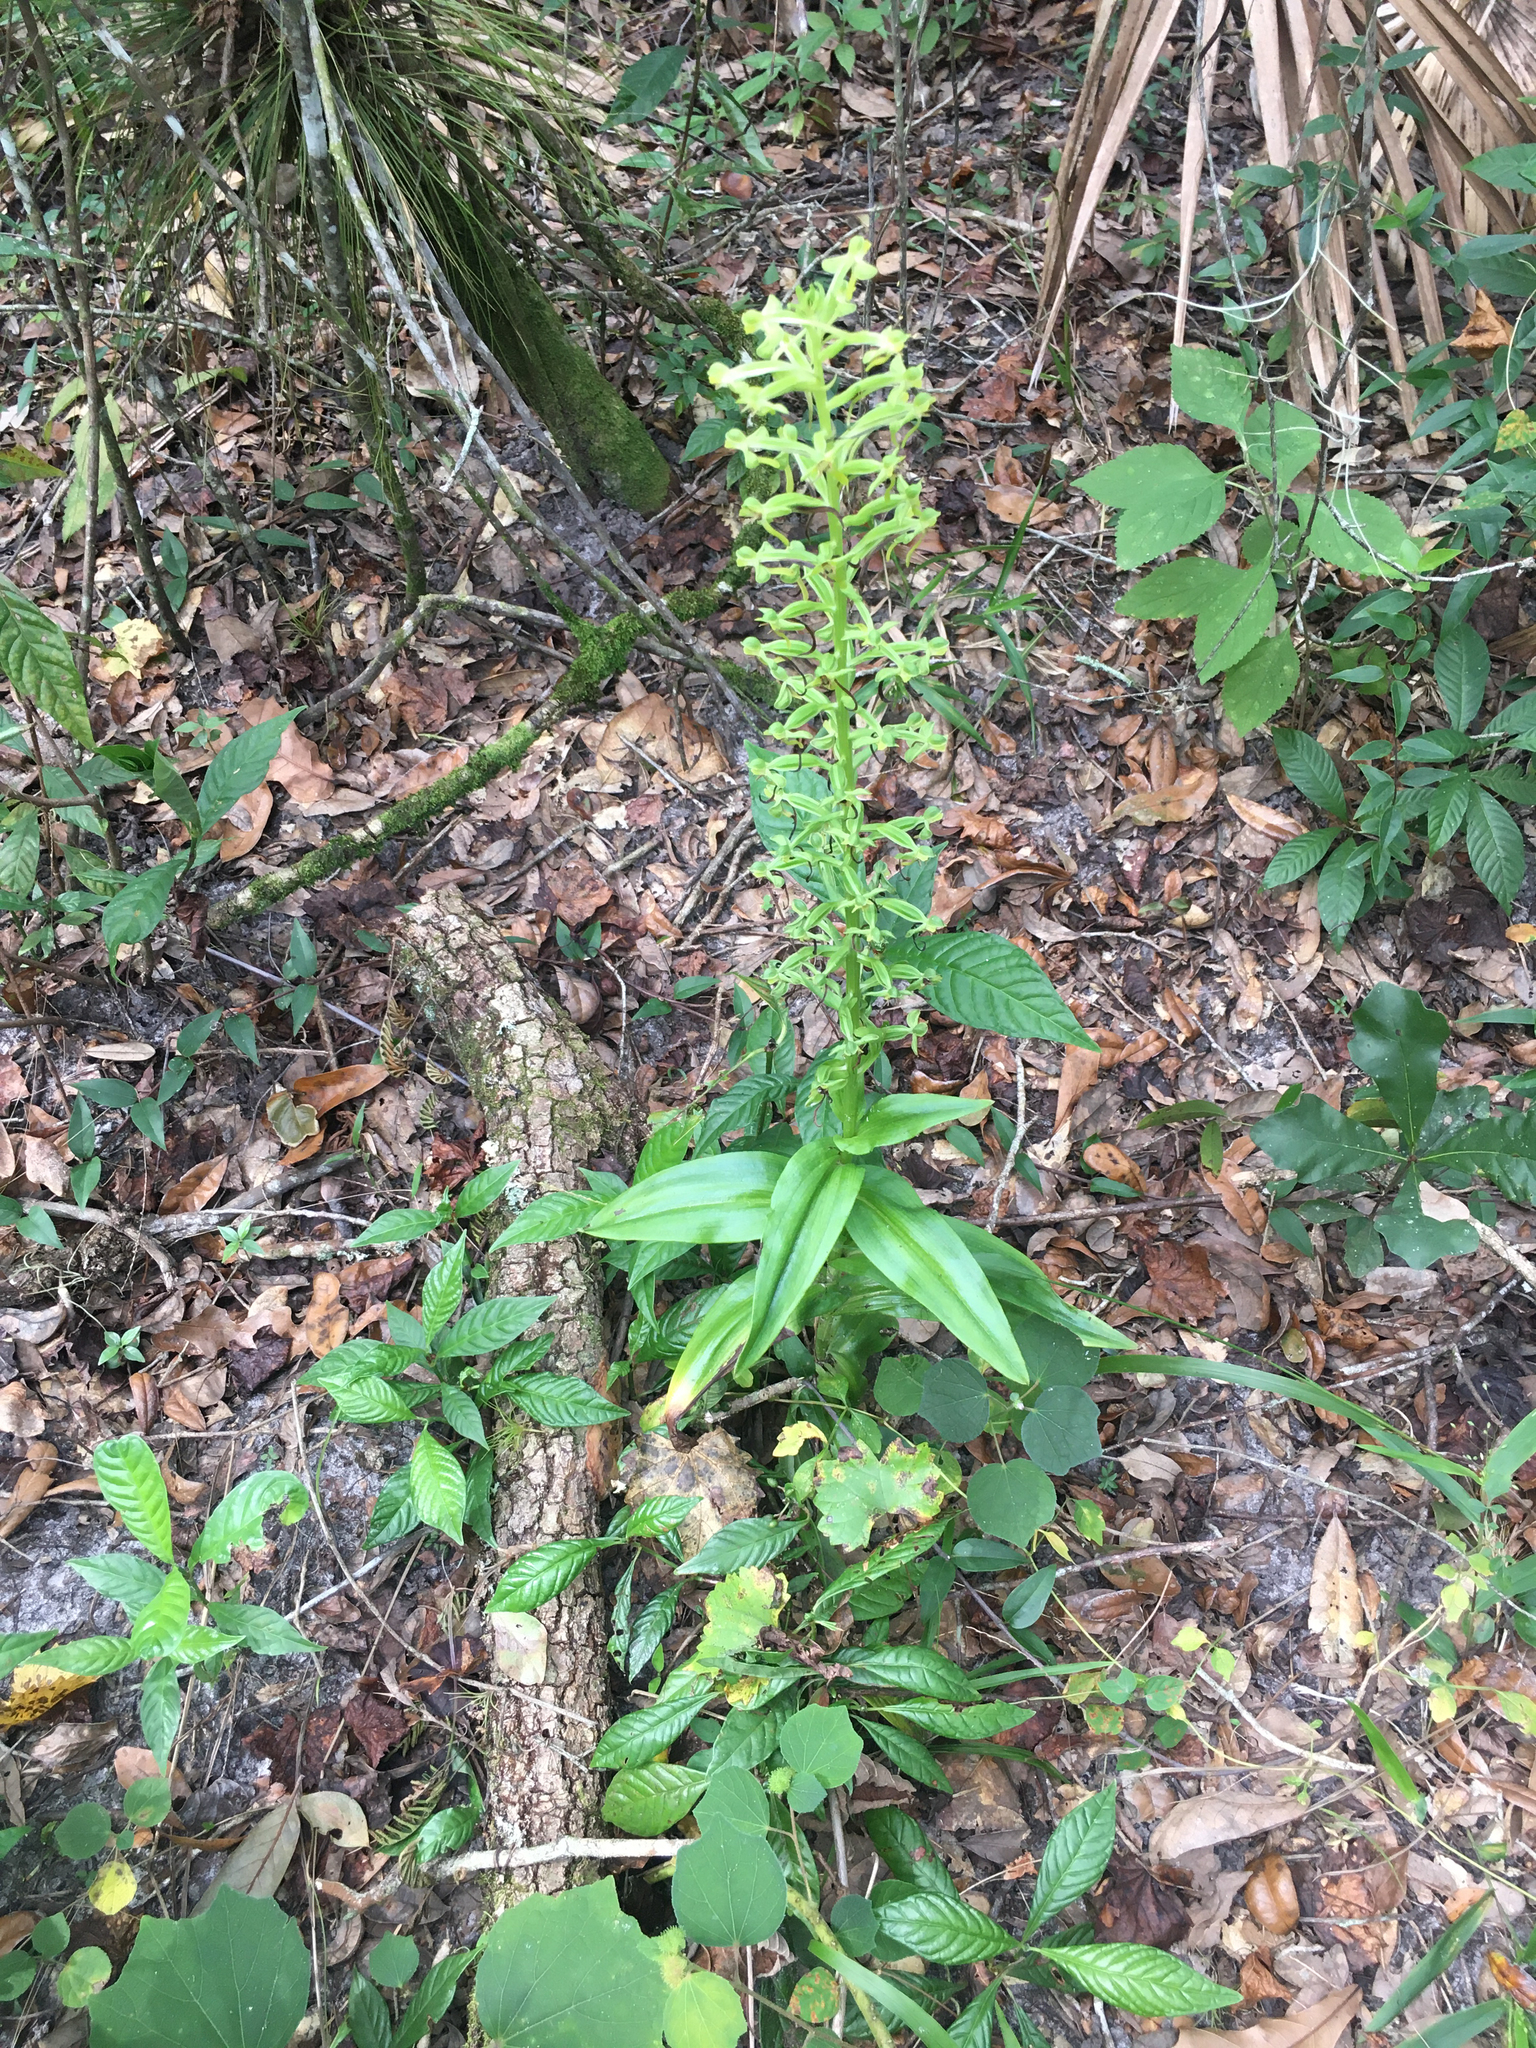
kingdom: Plantae
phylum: Tracheophyta
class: Liliopsida
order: Asparagales
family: Orchidaceae
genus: Habenaria
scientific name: Habenaria floribunda
